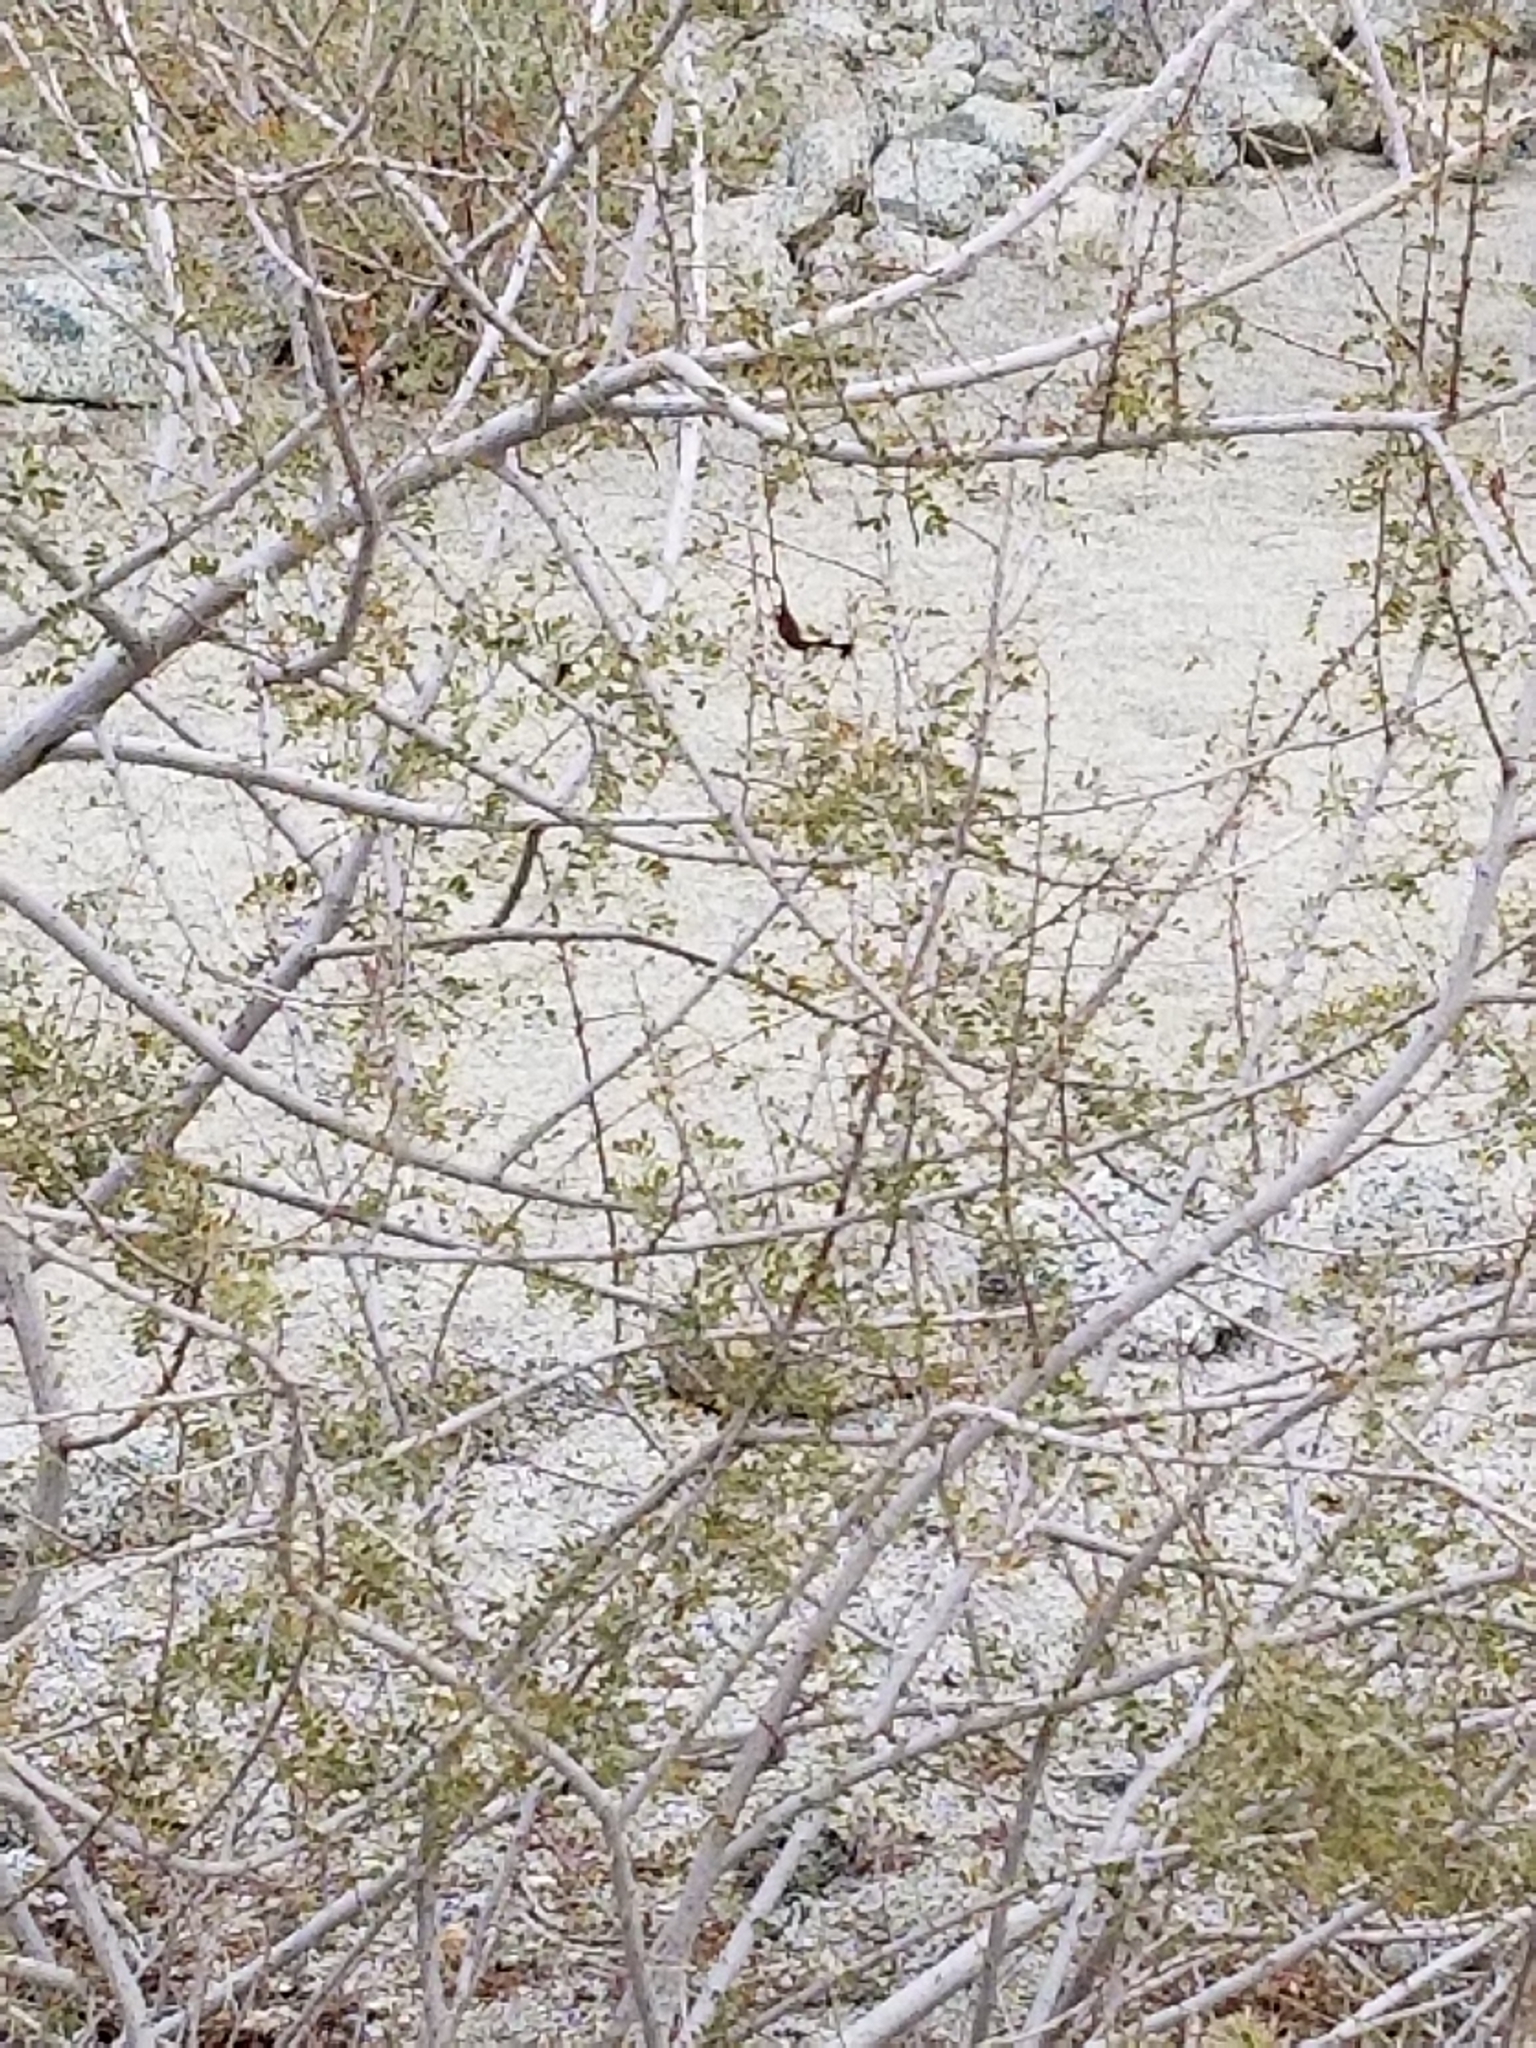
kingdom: Plantae
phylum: Tracheophyta
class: Magnoliopsida
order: Fabales
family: Fabaceae
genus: Senegalia
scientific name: Senegalia greggii
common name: Texas-mimosa
